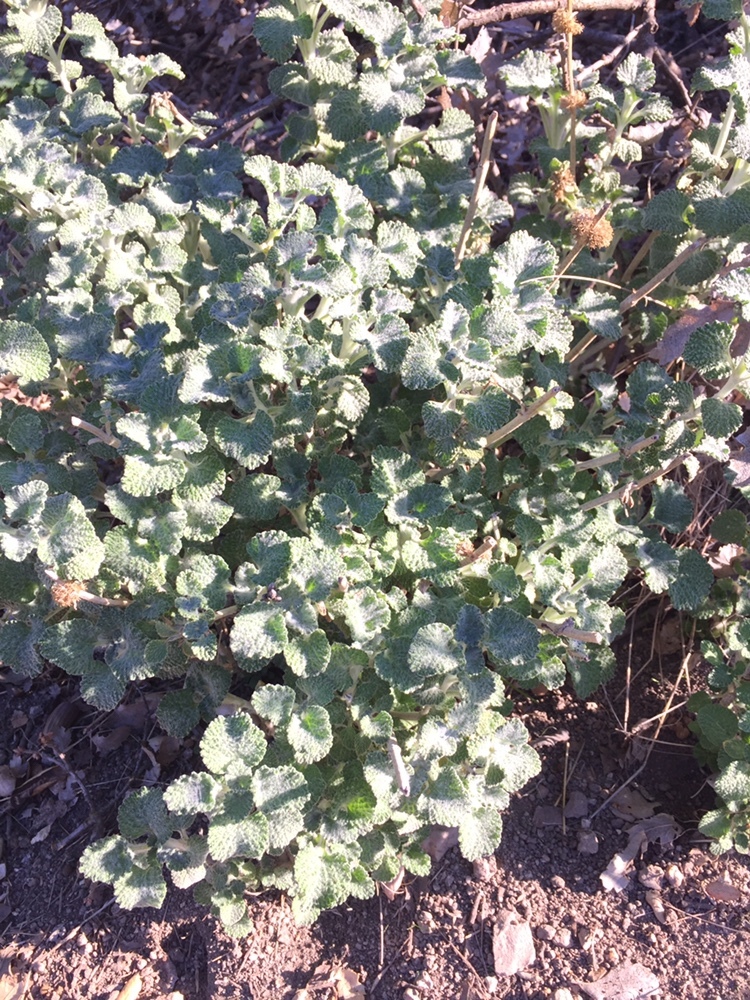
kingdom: Plantae
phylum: Tracheophyta
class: Magnoliopsida
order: Lamiales
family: Lamiaceae
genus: Marrubium
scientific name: Marrubium vulgare
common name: Horehound
